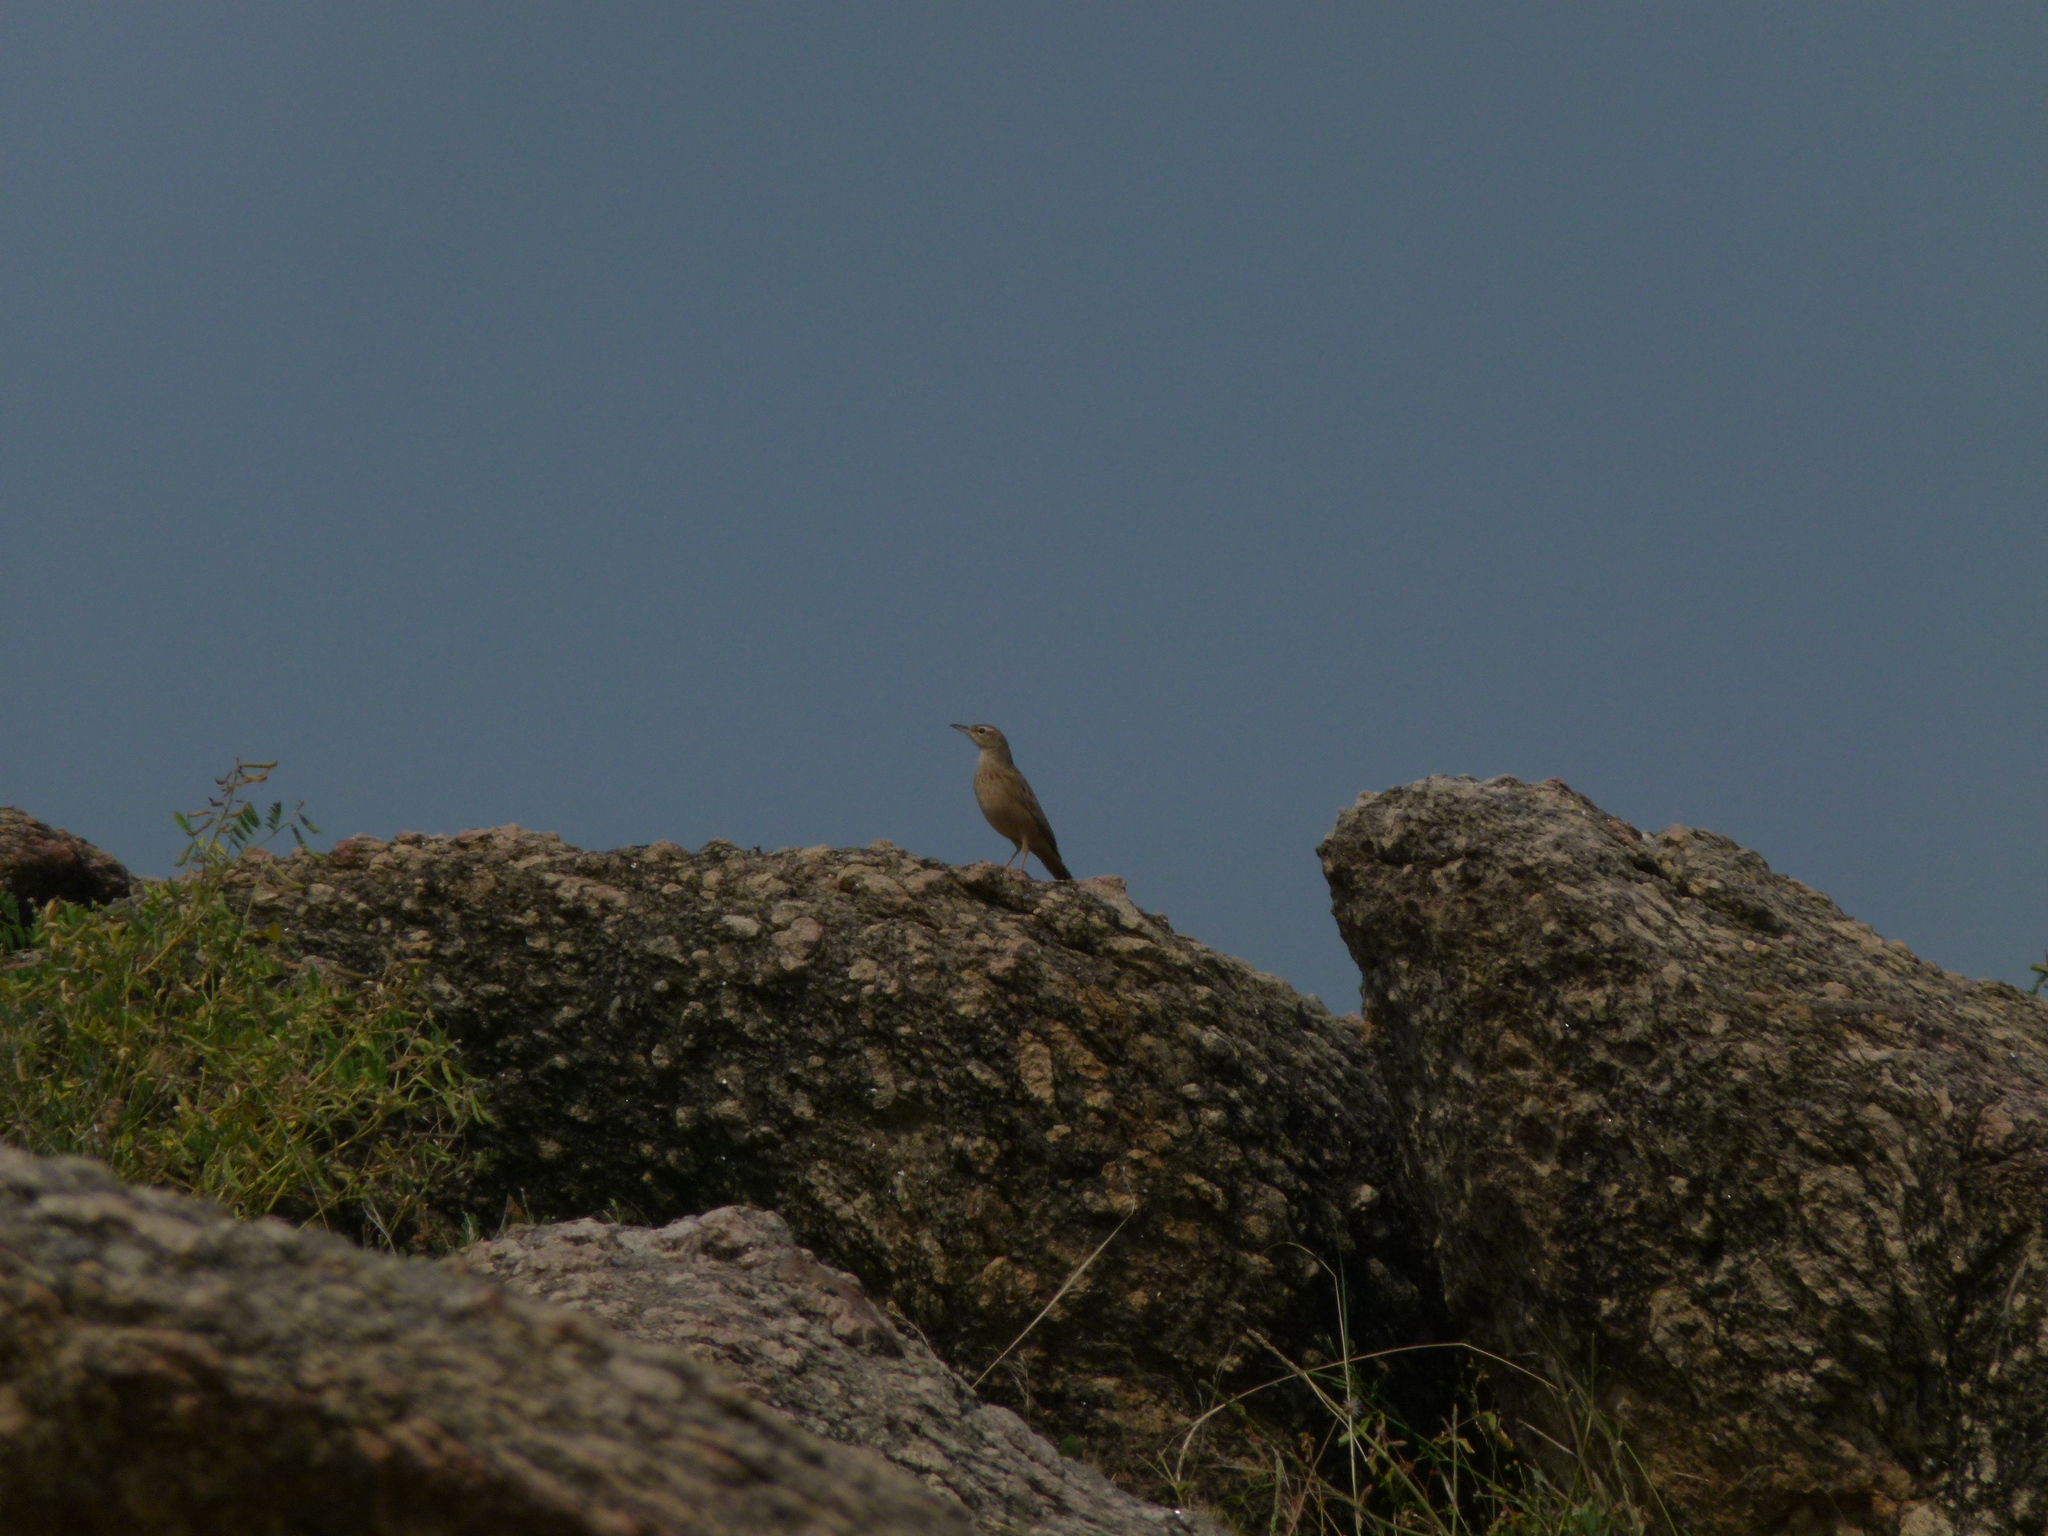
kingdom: Animalia
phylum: Chordata
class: Aves
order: Passeriformes
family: Motacillidae
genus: Anthus
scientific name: Anthus campestris
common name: Tawny pipit
